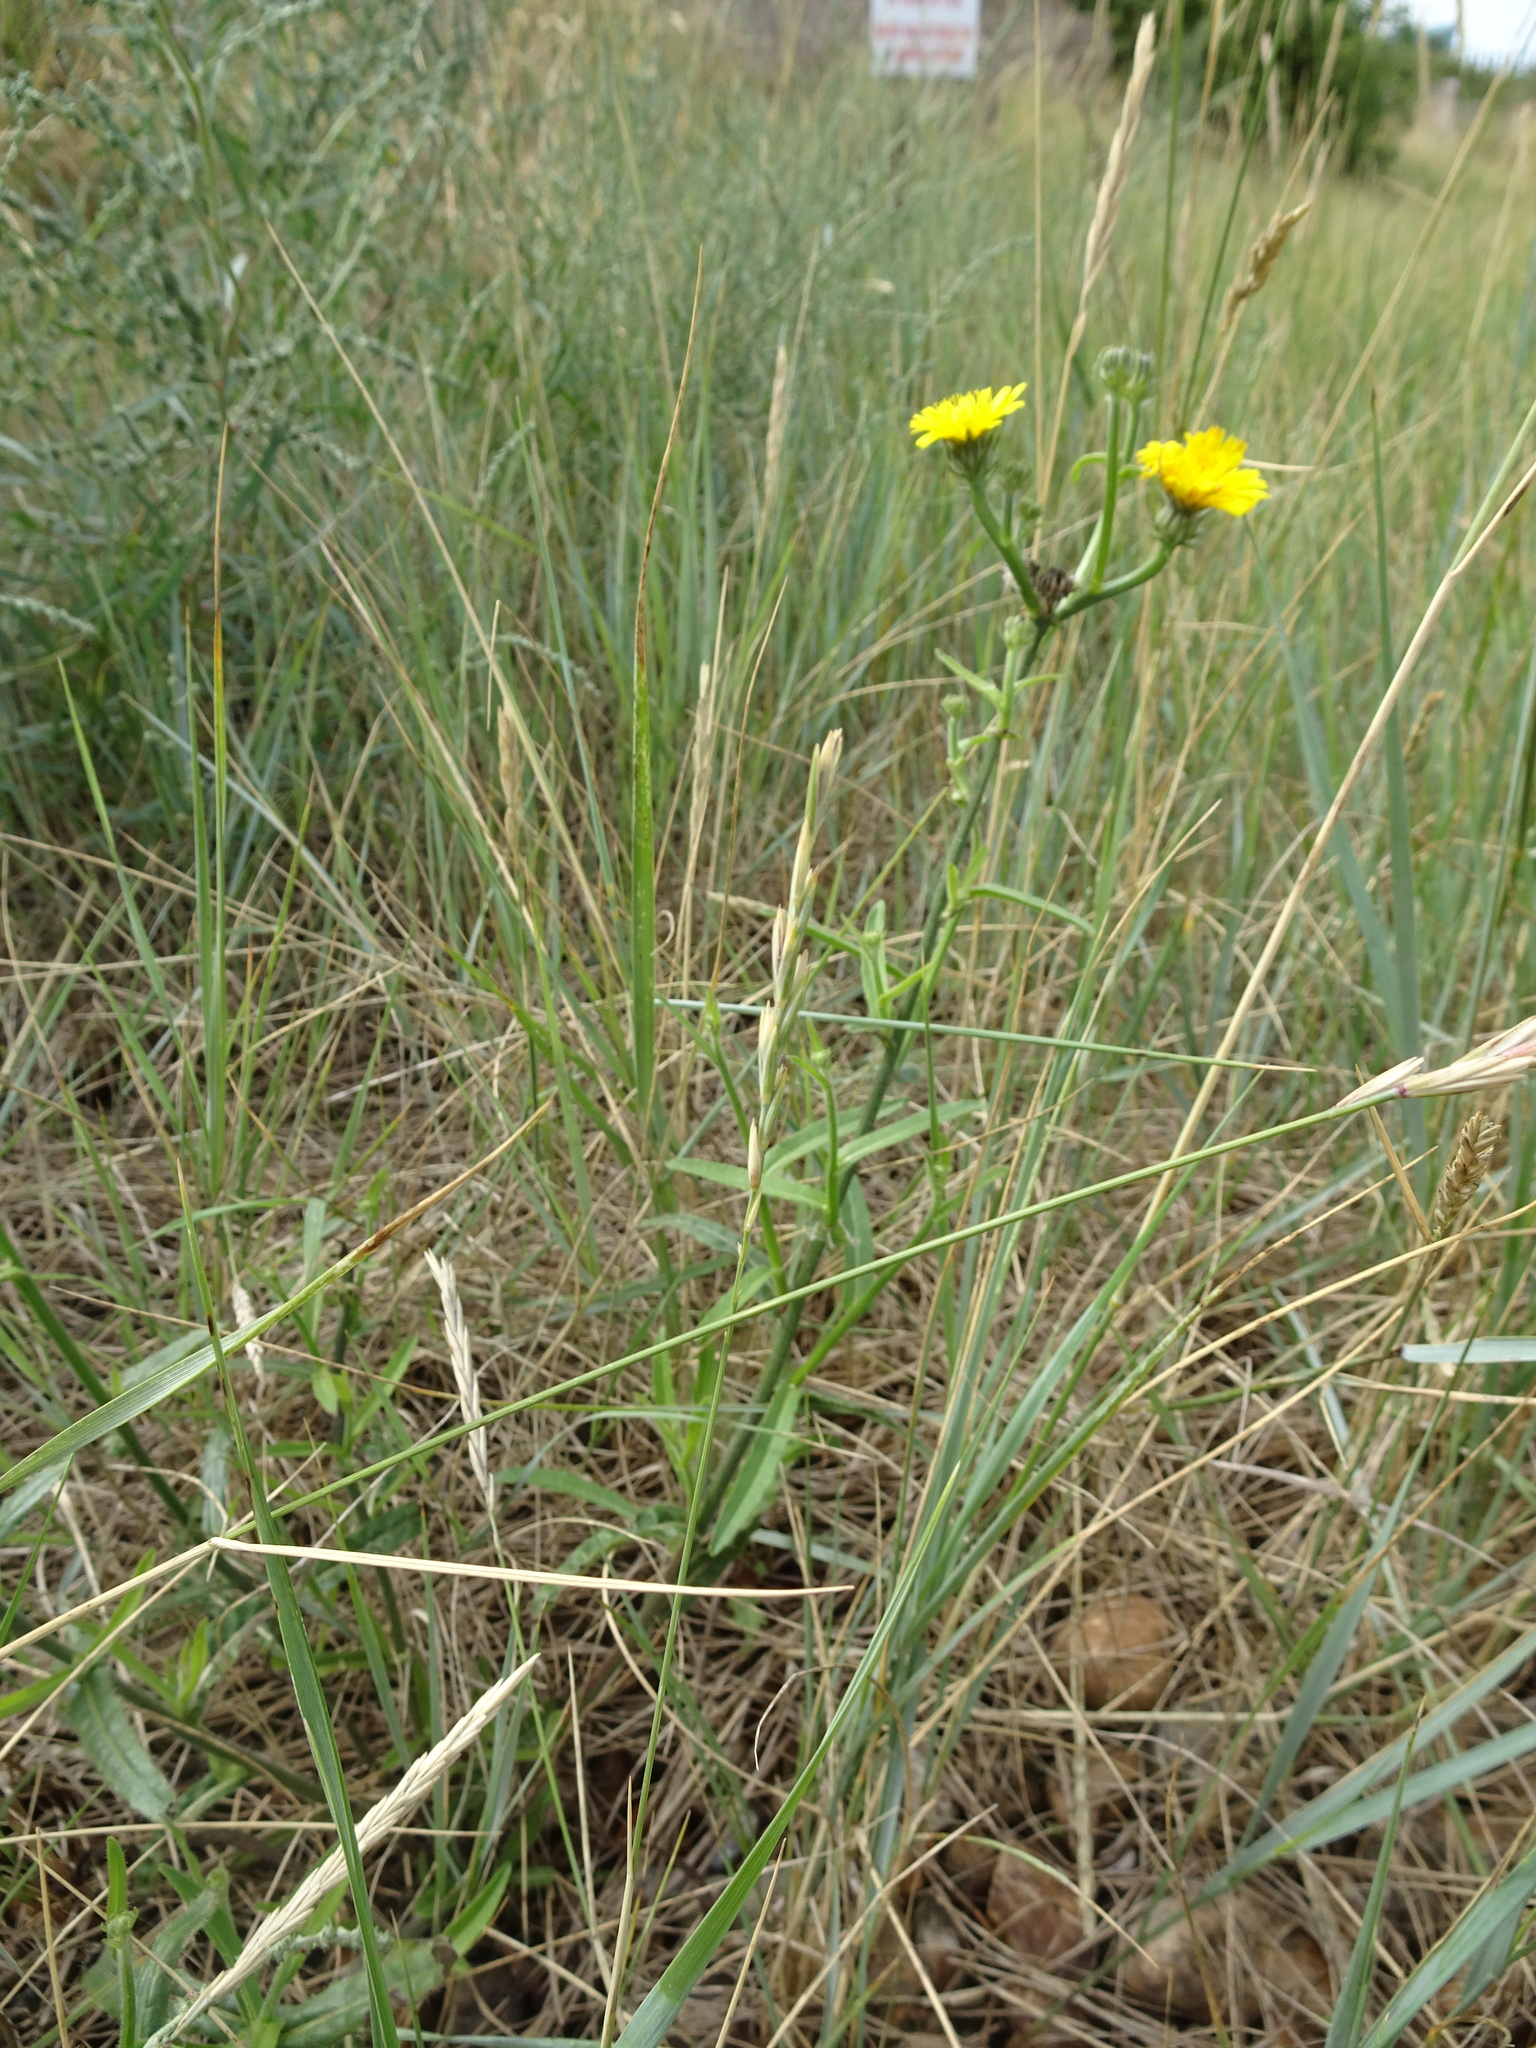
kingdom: Plantae
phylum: Tracheophyta
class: Magnoliopsida
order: Asterales
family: Asteraceae
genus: Picris
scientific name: Picris hieracioides
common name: Hawkweed oxtongue
